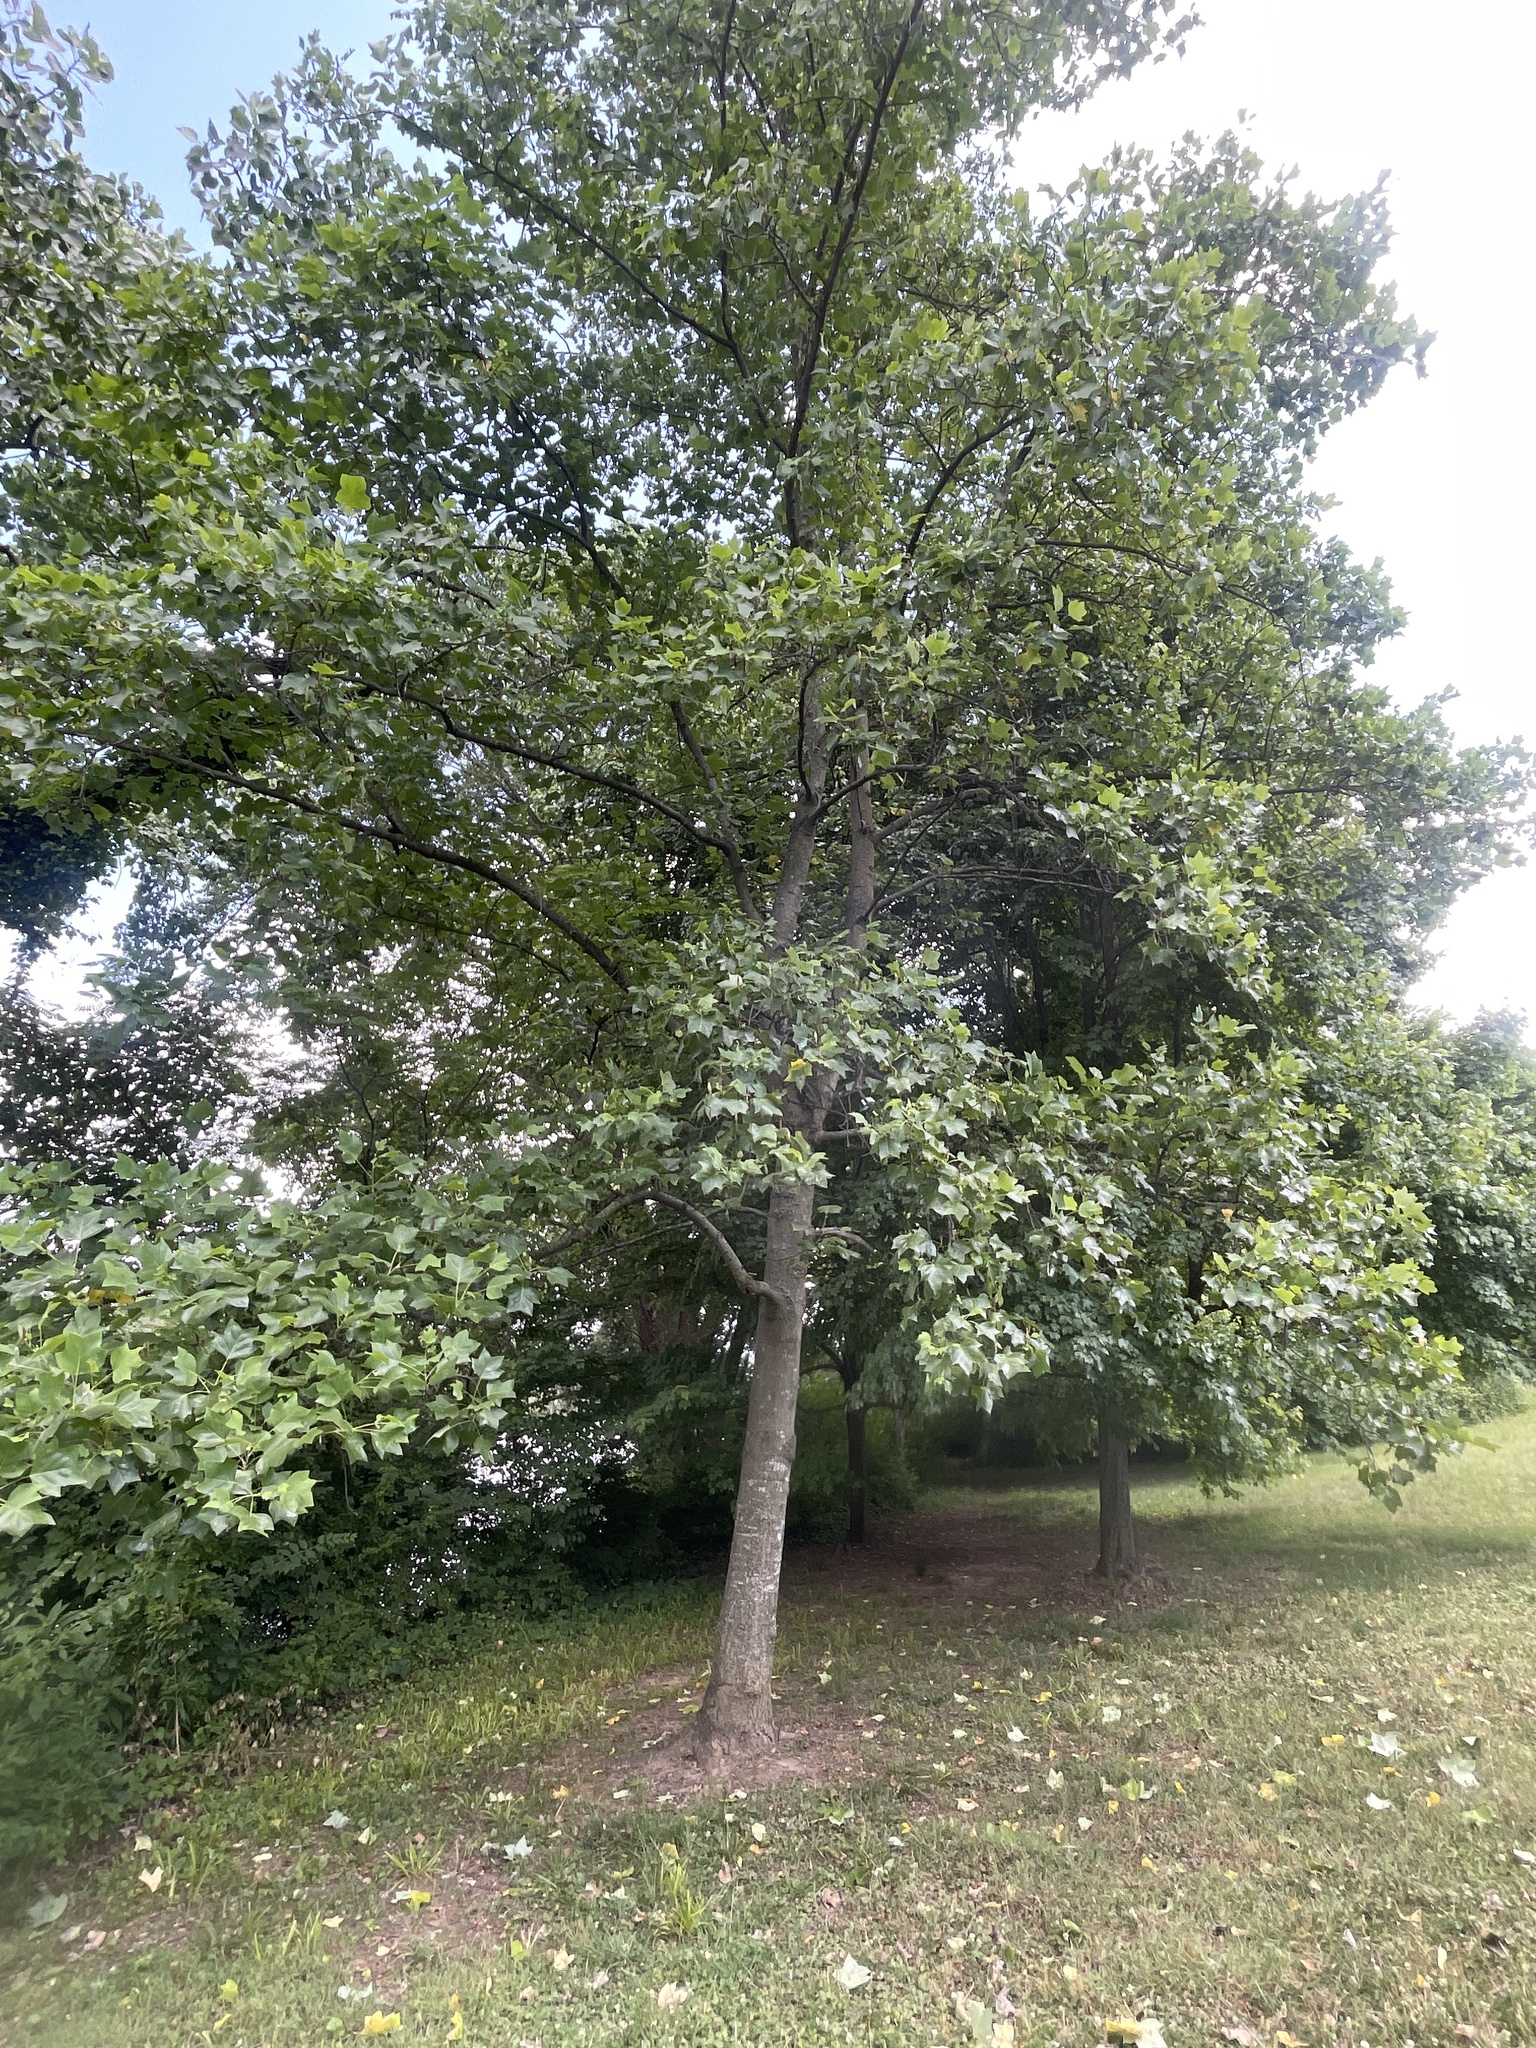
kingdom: Plantae
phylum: Tracheophyta
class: Magnoliopsida
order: Magnoliales
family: Magnoliaceae
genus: Liriodendron
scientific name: Liriodendron tulipifera
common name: Tulip tree
